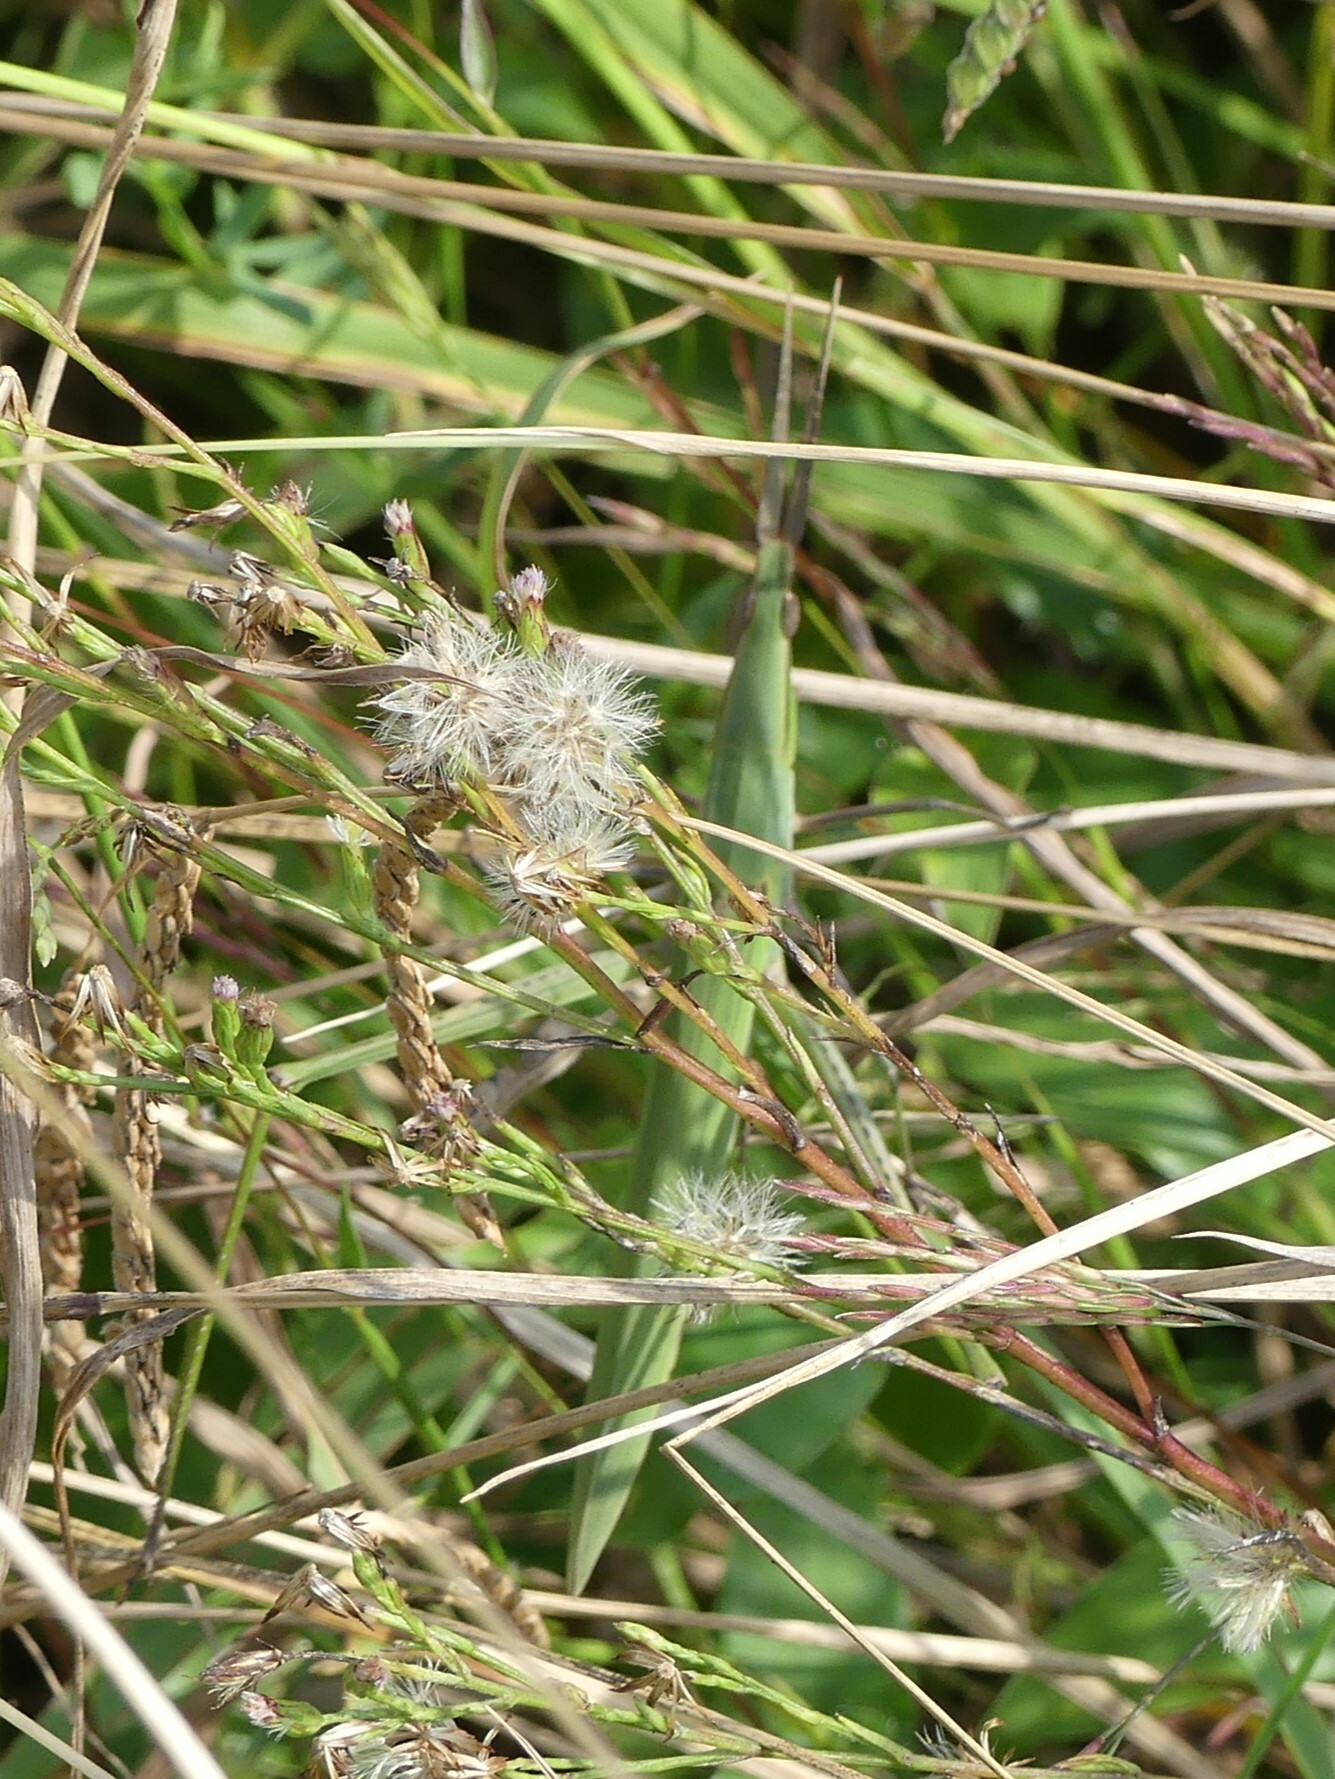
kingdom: Animalia
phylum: Arthropoda
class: Insecta
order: Orthoptera
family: Acrididae
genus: Acrida
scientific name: Acrida ungarica
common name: Common cone-headed grasshopper
